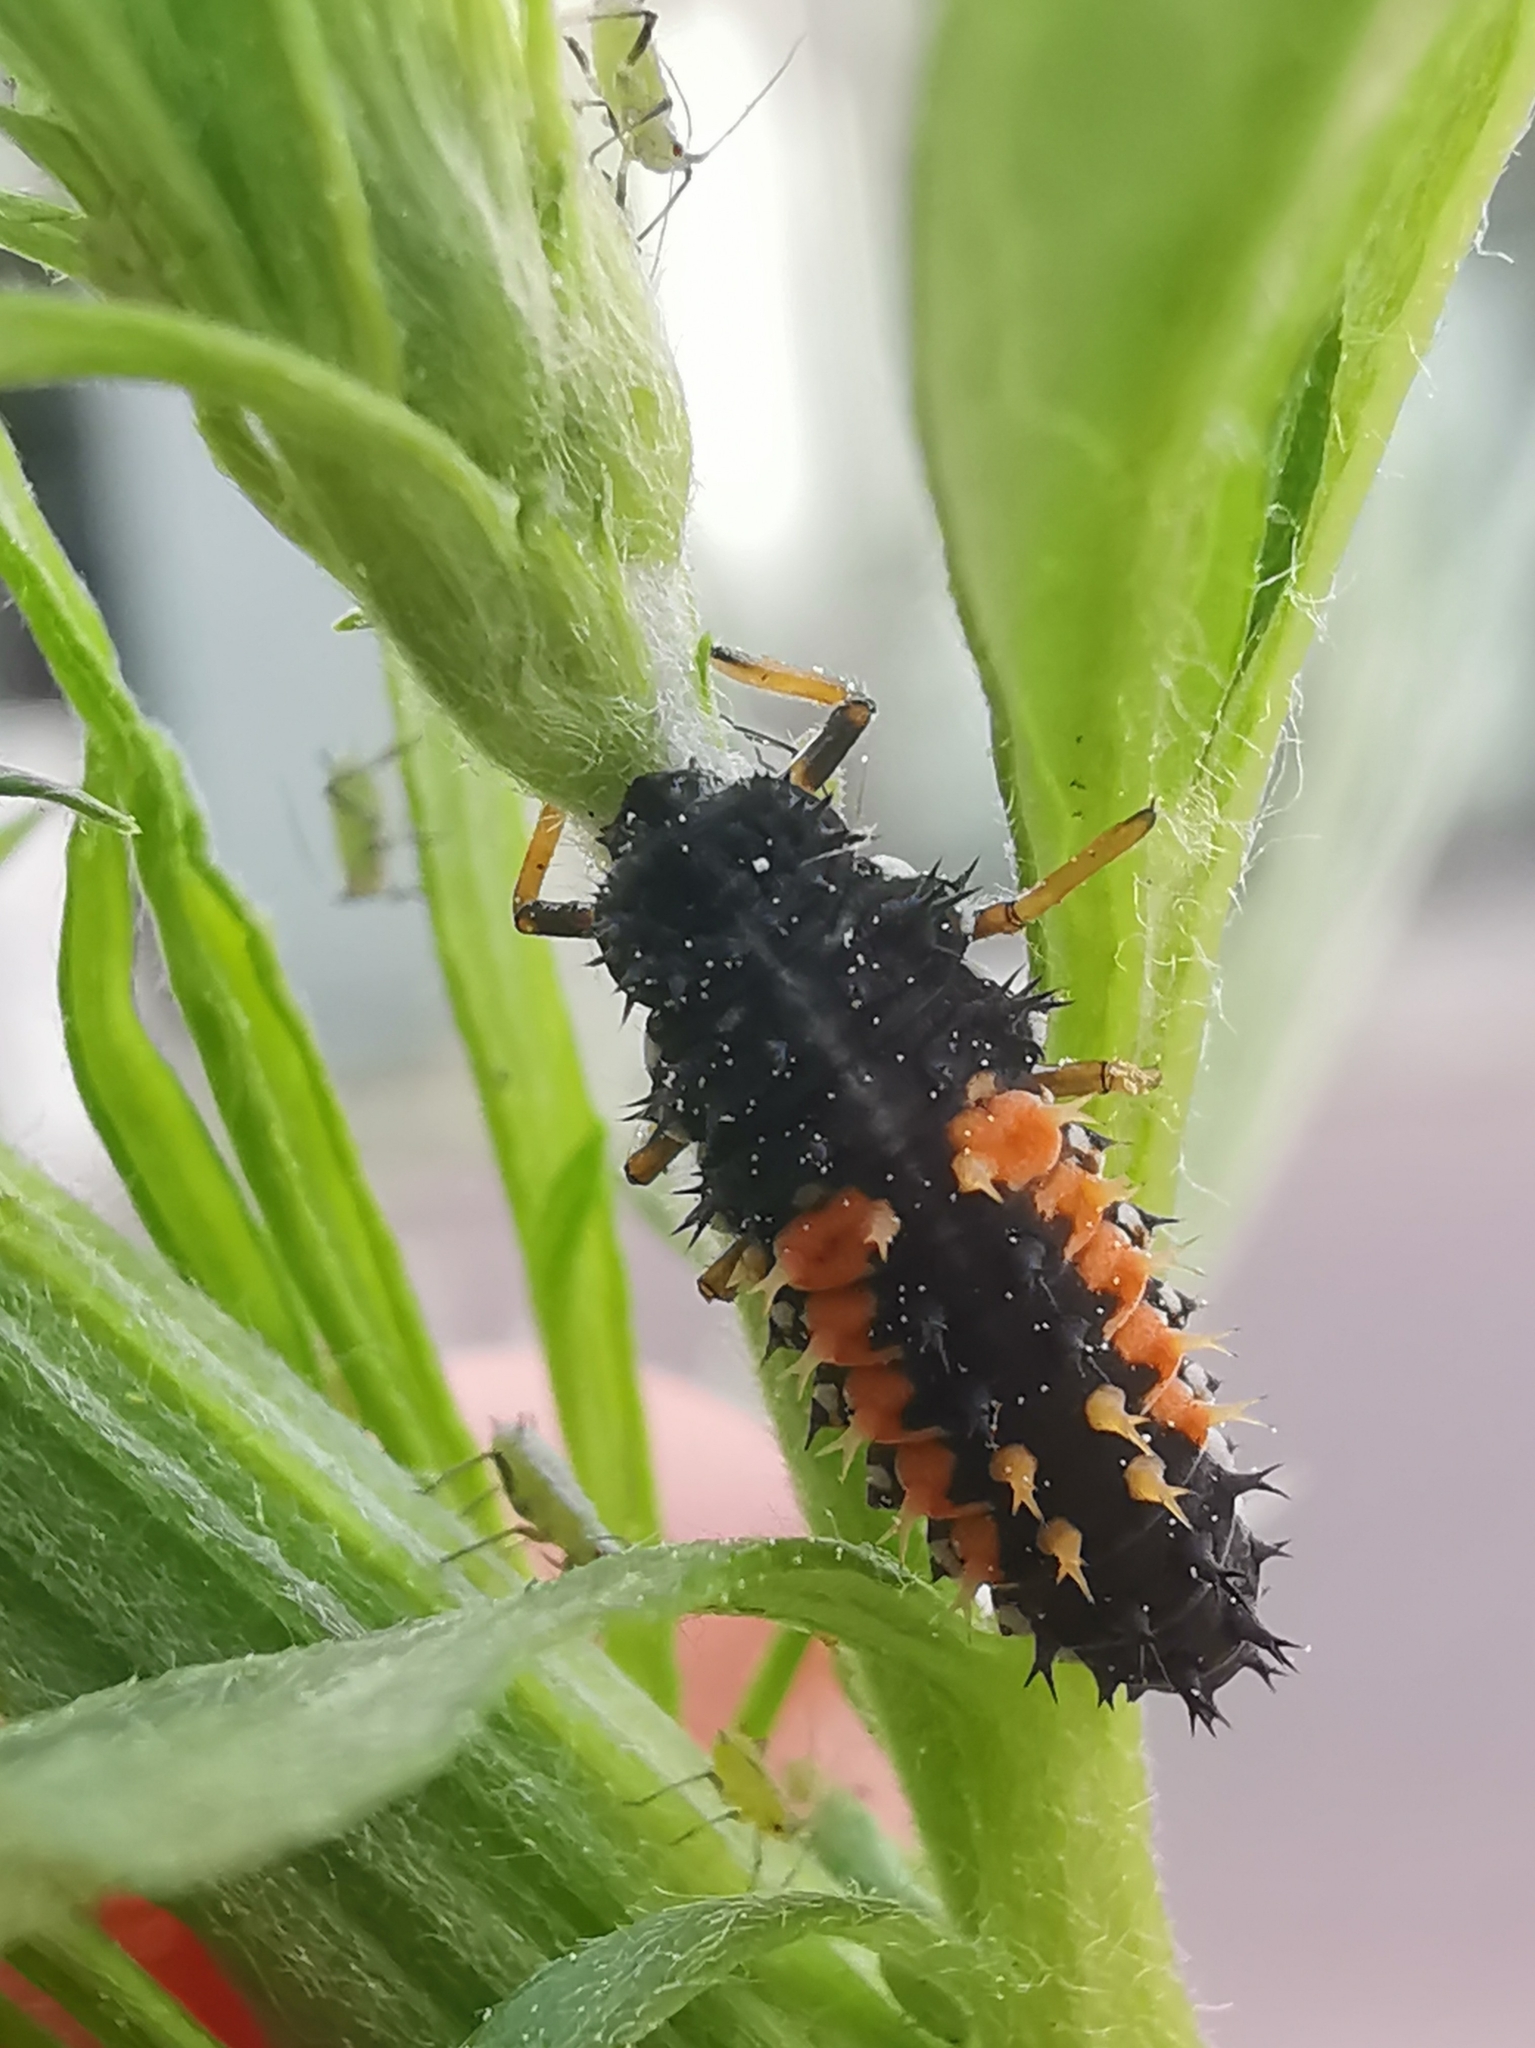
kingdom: Animalia
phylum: Arthropoda
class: Insecta
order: Coleoptera
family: Coccinellidae
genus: Harmonia
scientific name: Harmonia axyridis
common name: Harlequin ladybird
